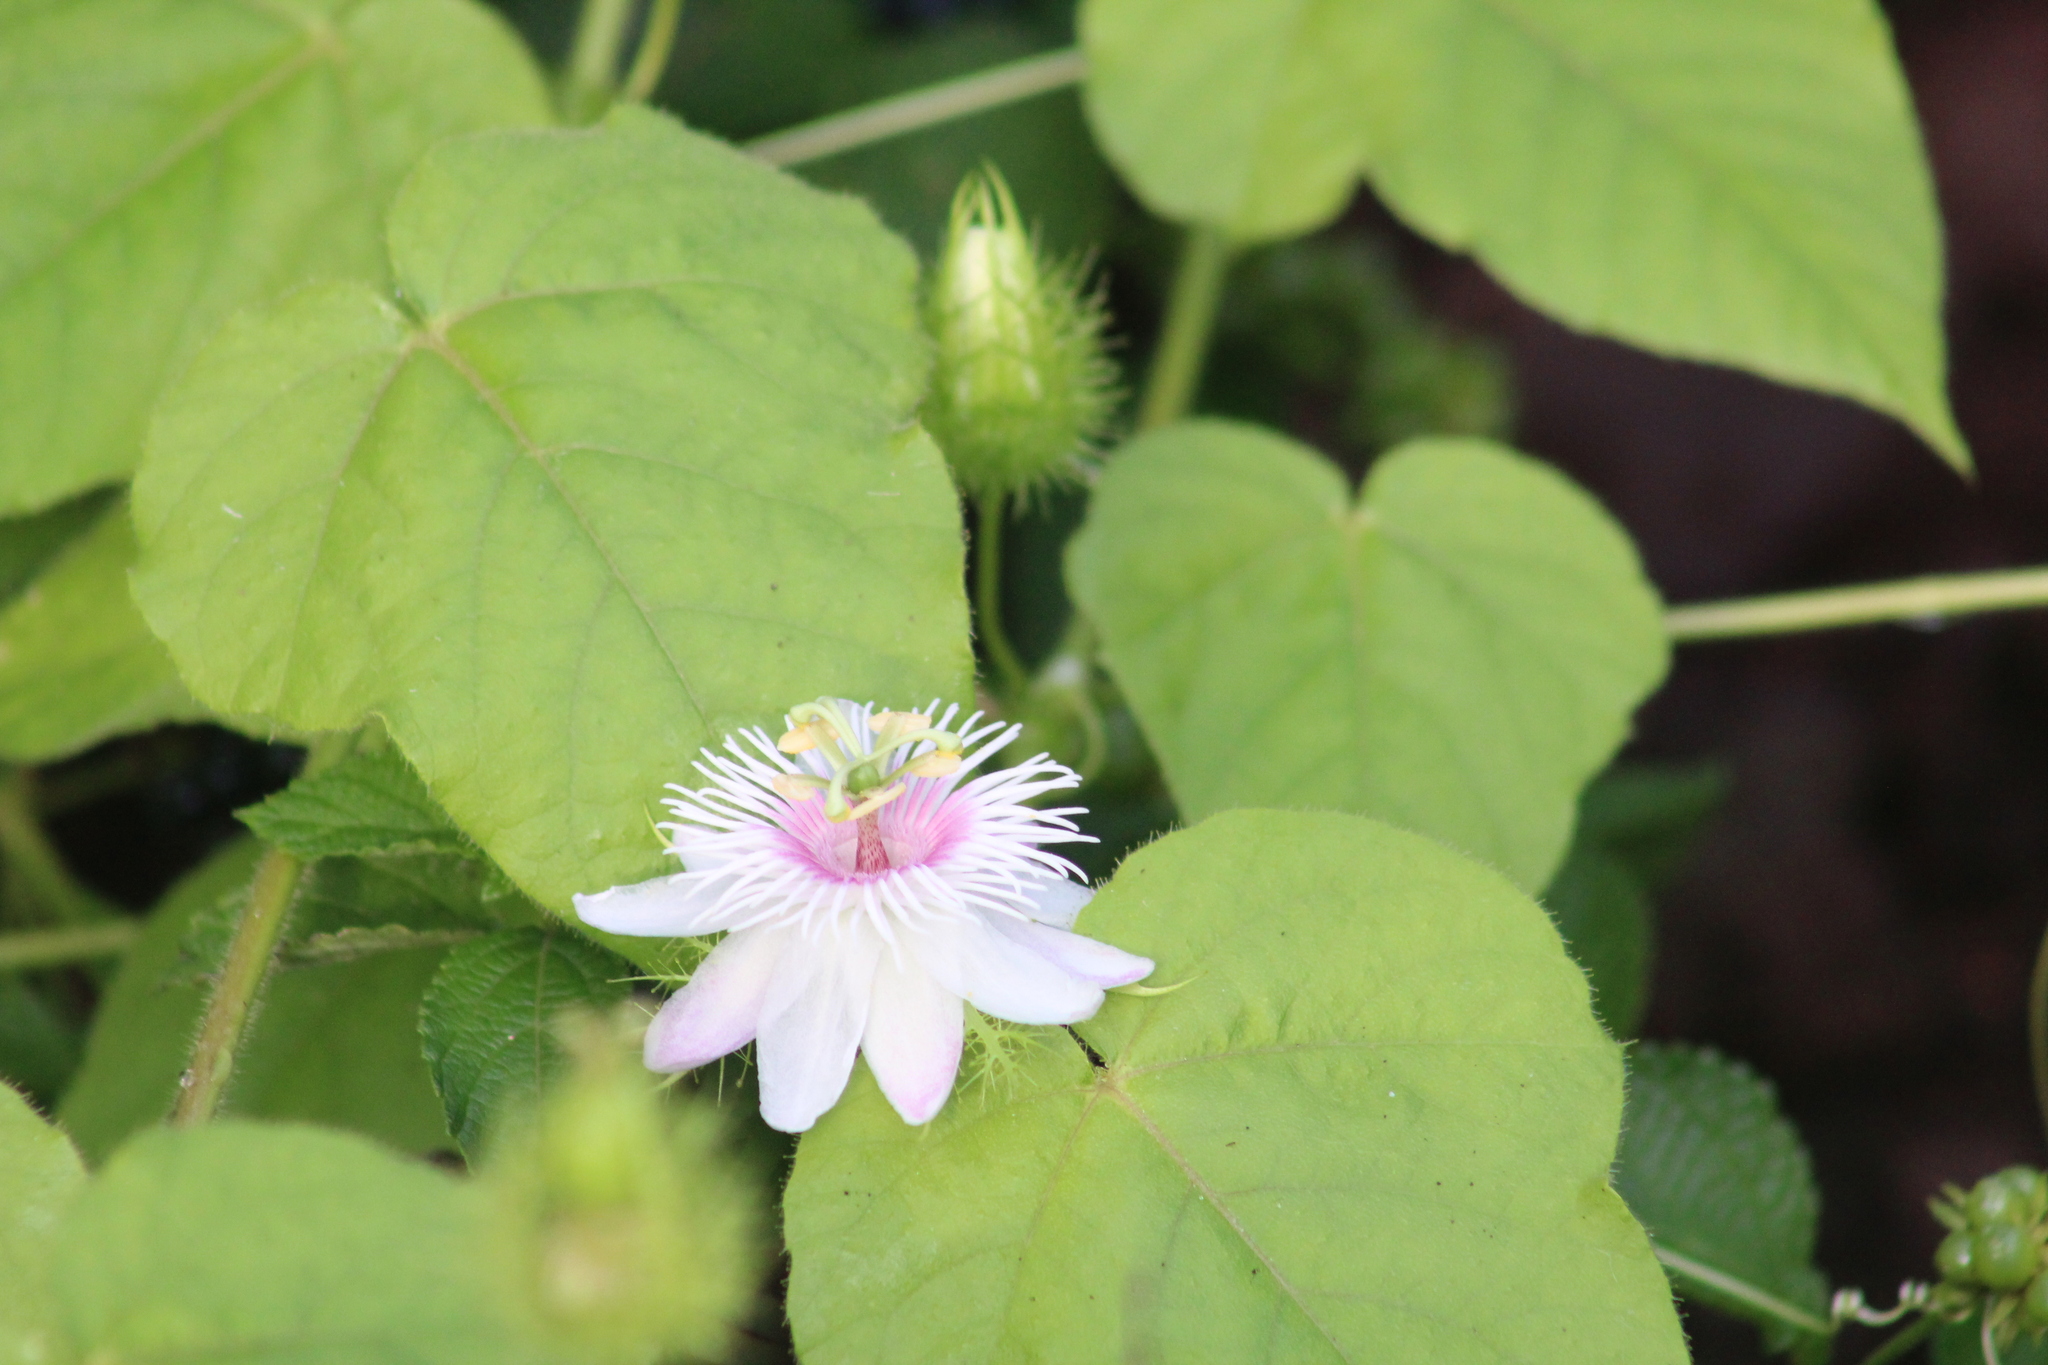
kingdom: Plantae
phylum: Tracheophyta
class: Magnoliopsida
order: Malpighiales
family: Passifloraceae
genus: Passiflora
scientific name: Passiflora vesicaria
